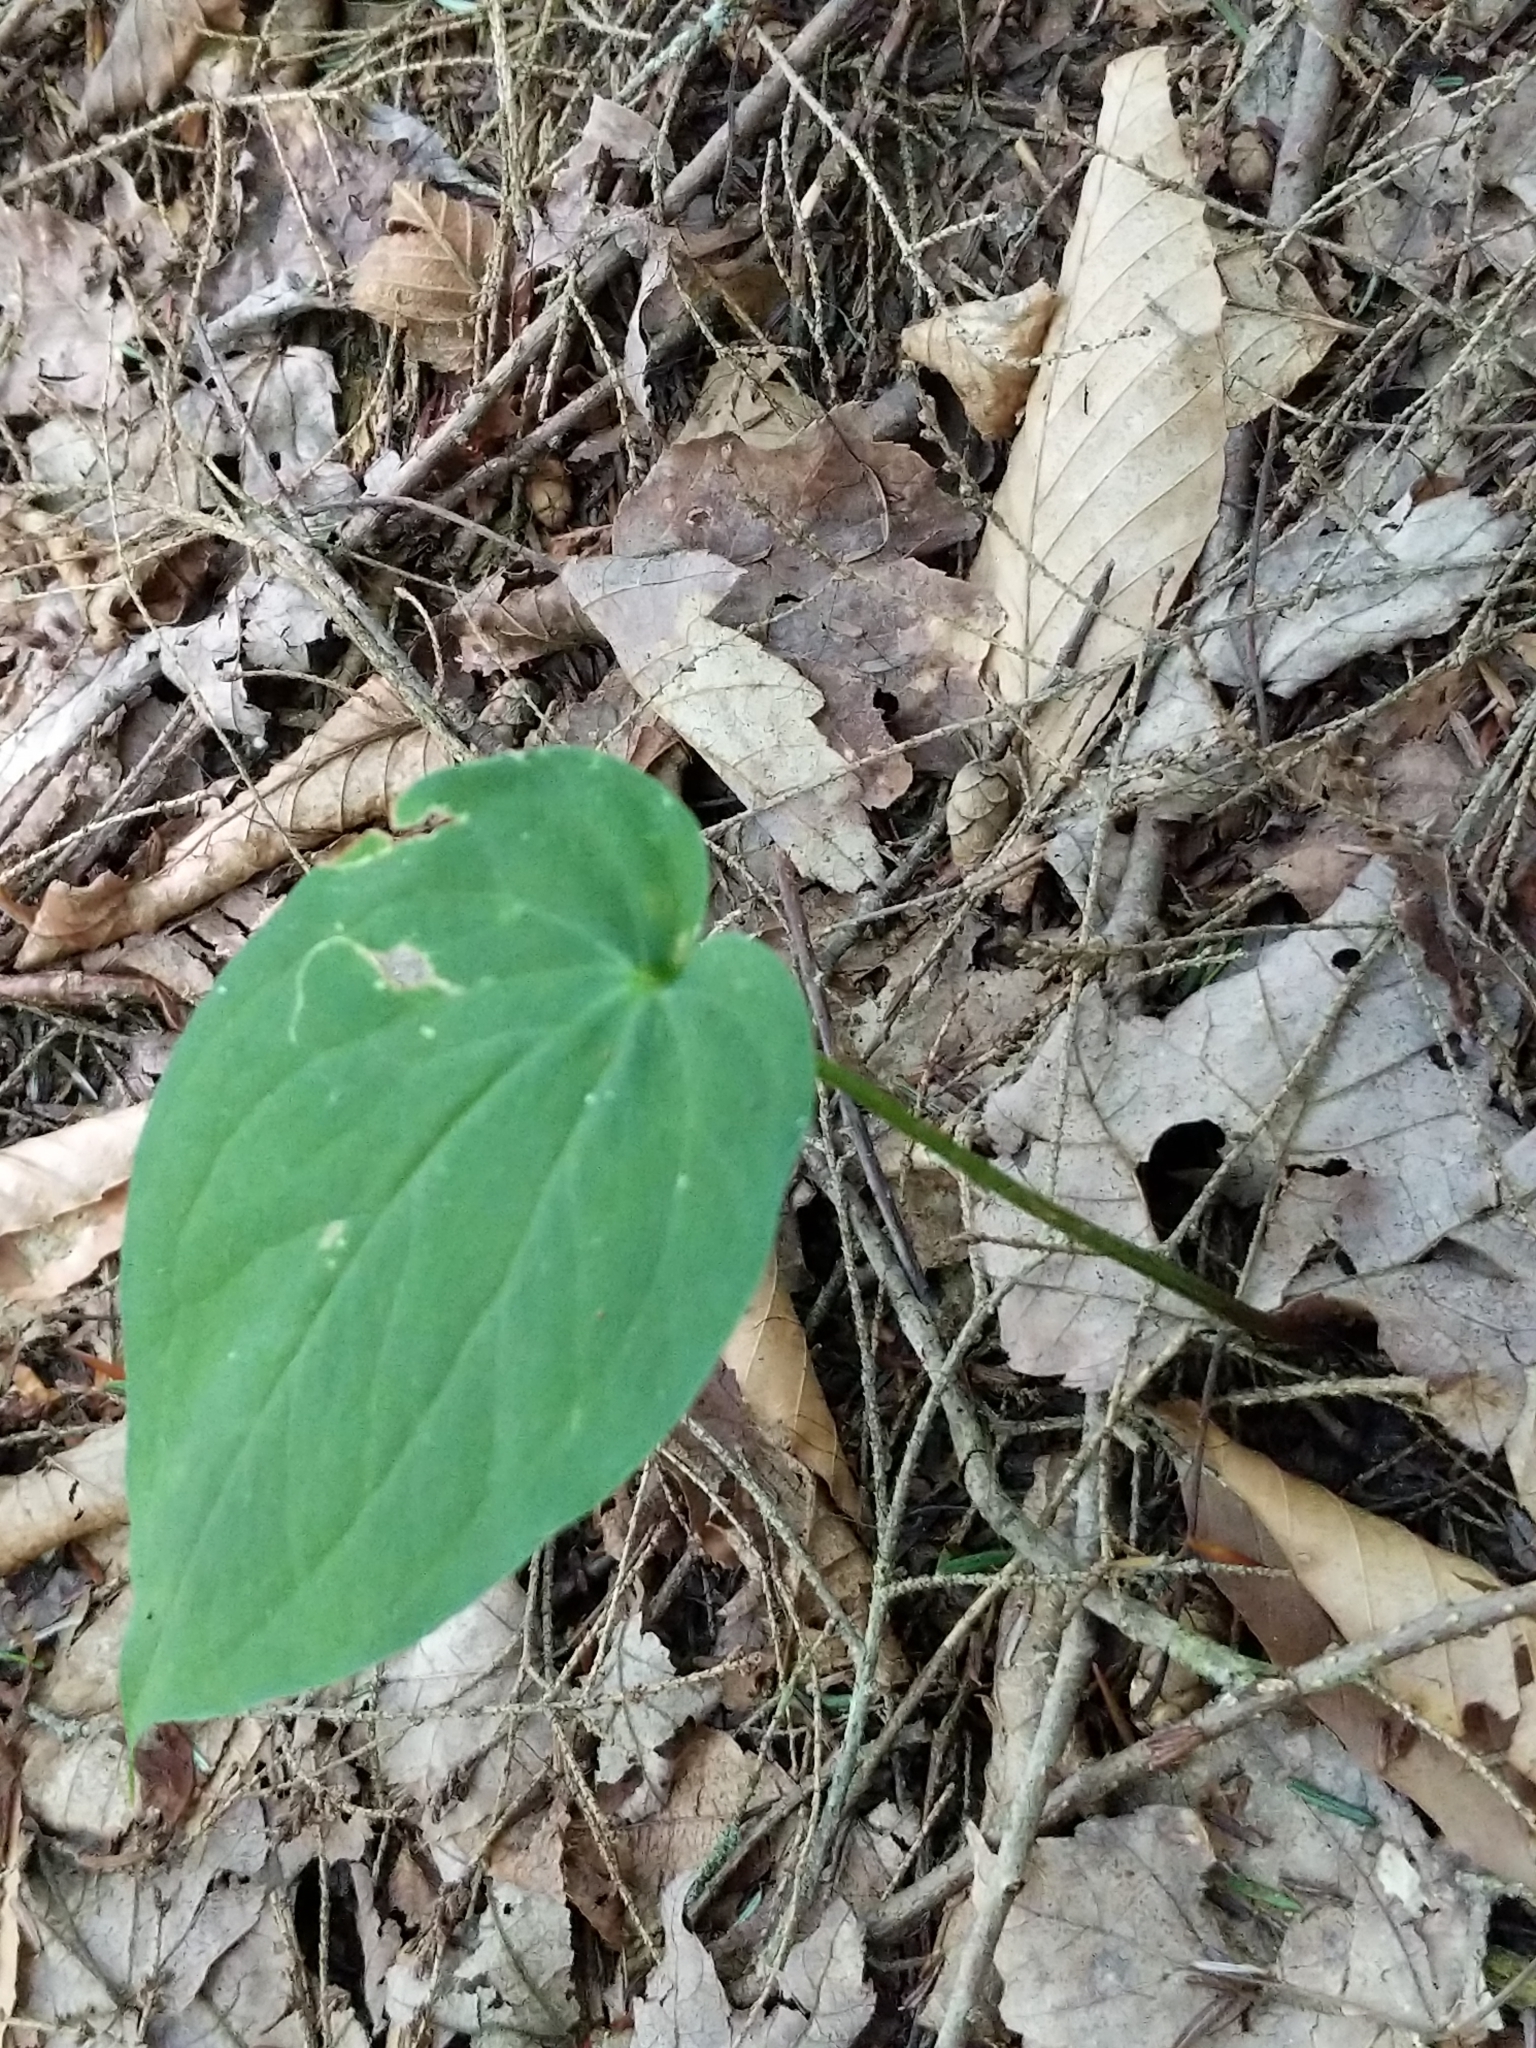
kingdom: Plantae
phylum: Tracheophyta
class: Liliopsida
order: Liliales
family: Melanthiaceae
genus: Trillium
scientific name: Trillium undulatum
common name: Paint trillium
